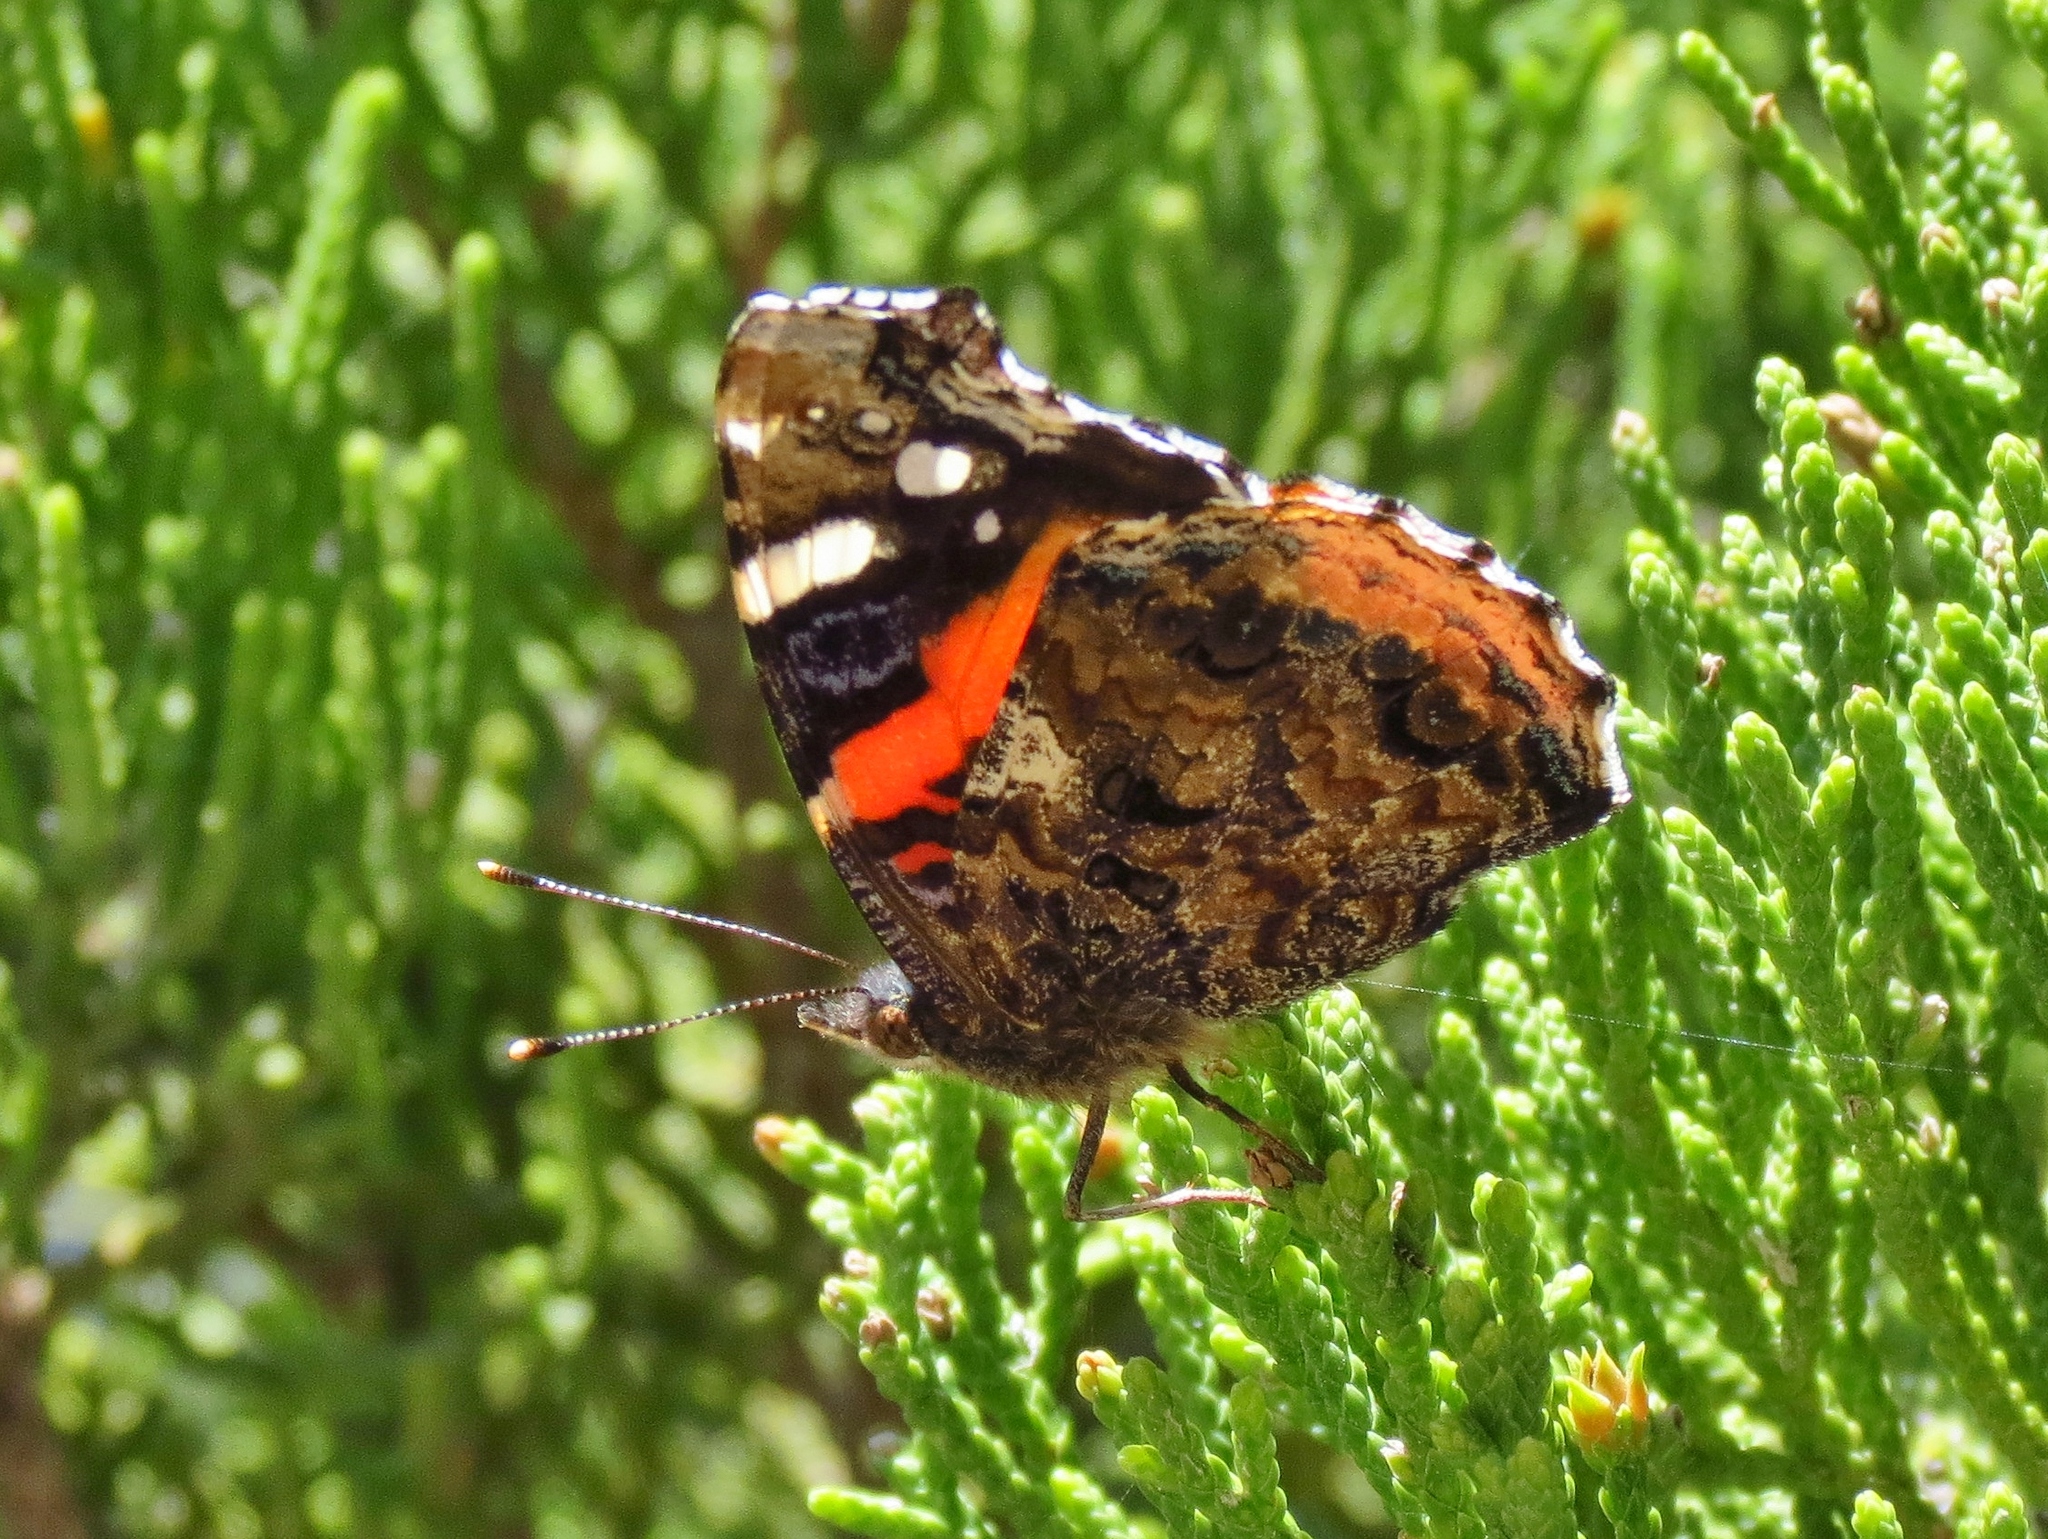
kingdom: Animalia
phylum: Arthropoda
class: Insecta
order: Lepidoptera
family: Nymphalidae
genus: Vanessa
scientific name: Vanessa atalanta
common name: Red admiral
